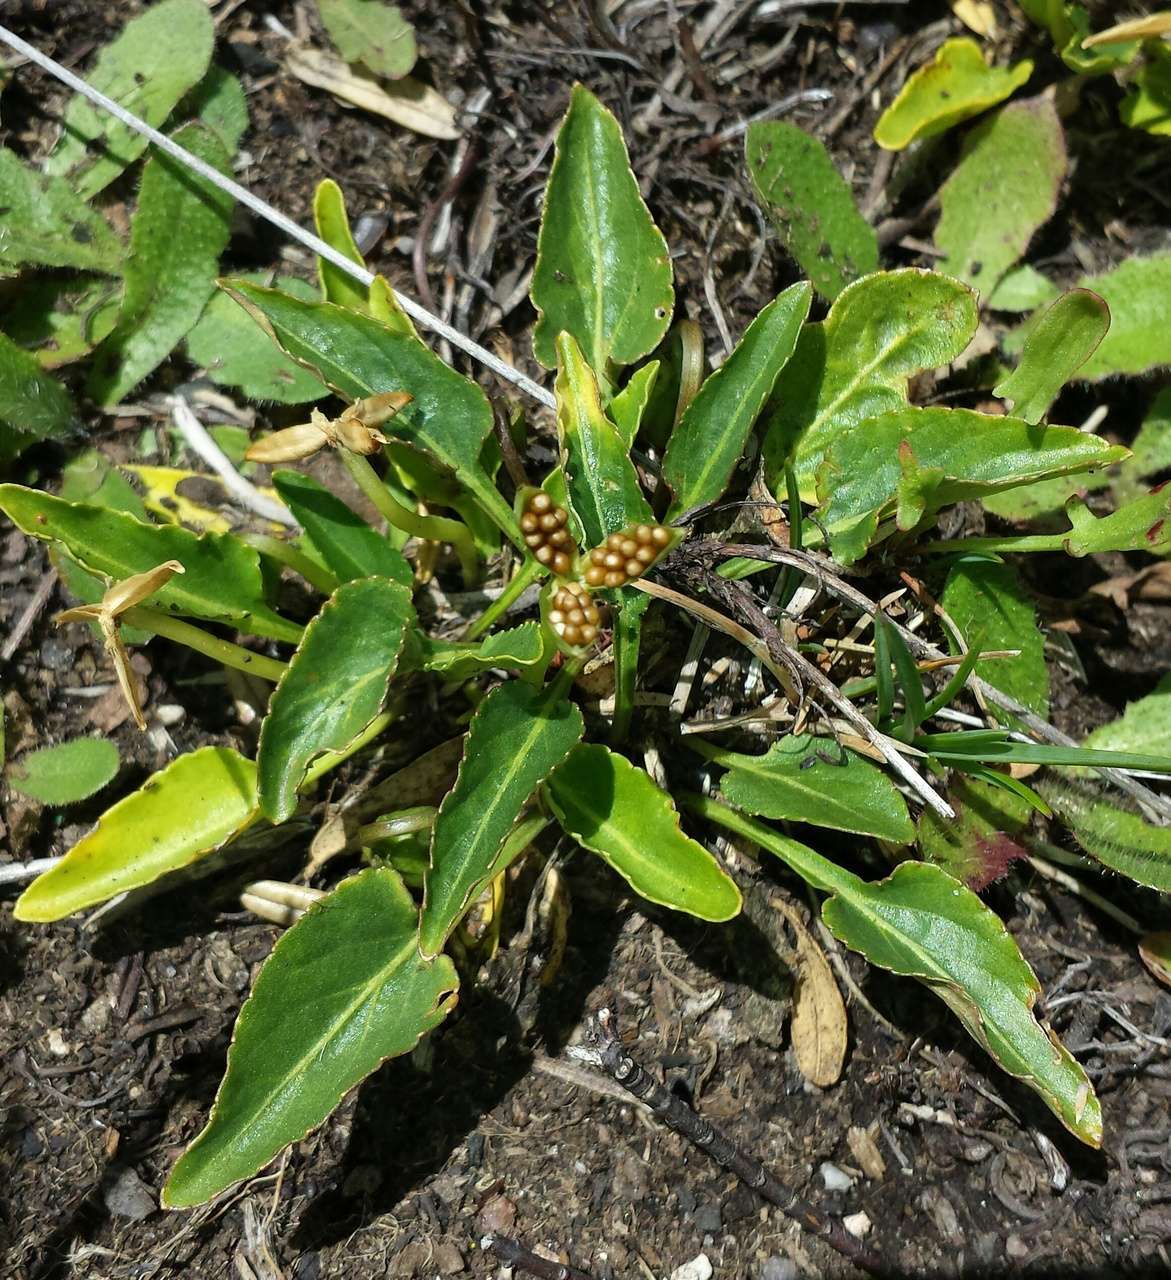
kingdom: Plantae
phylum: Tracheophyta
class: Magnoliopsida
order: Malpighiales
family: Violaceae
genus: Viola
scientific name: Viola betonicifolia
